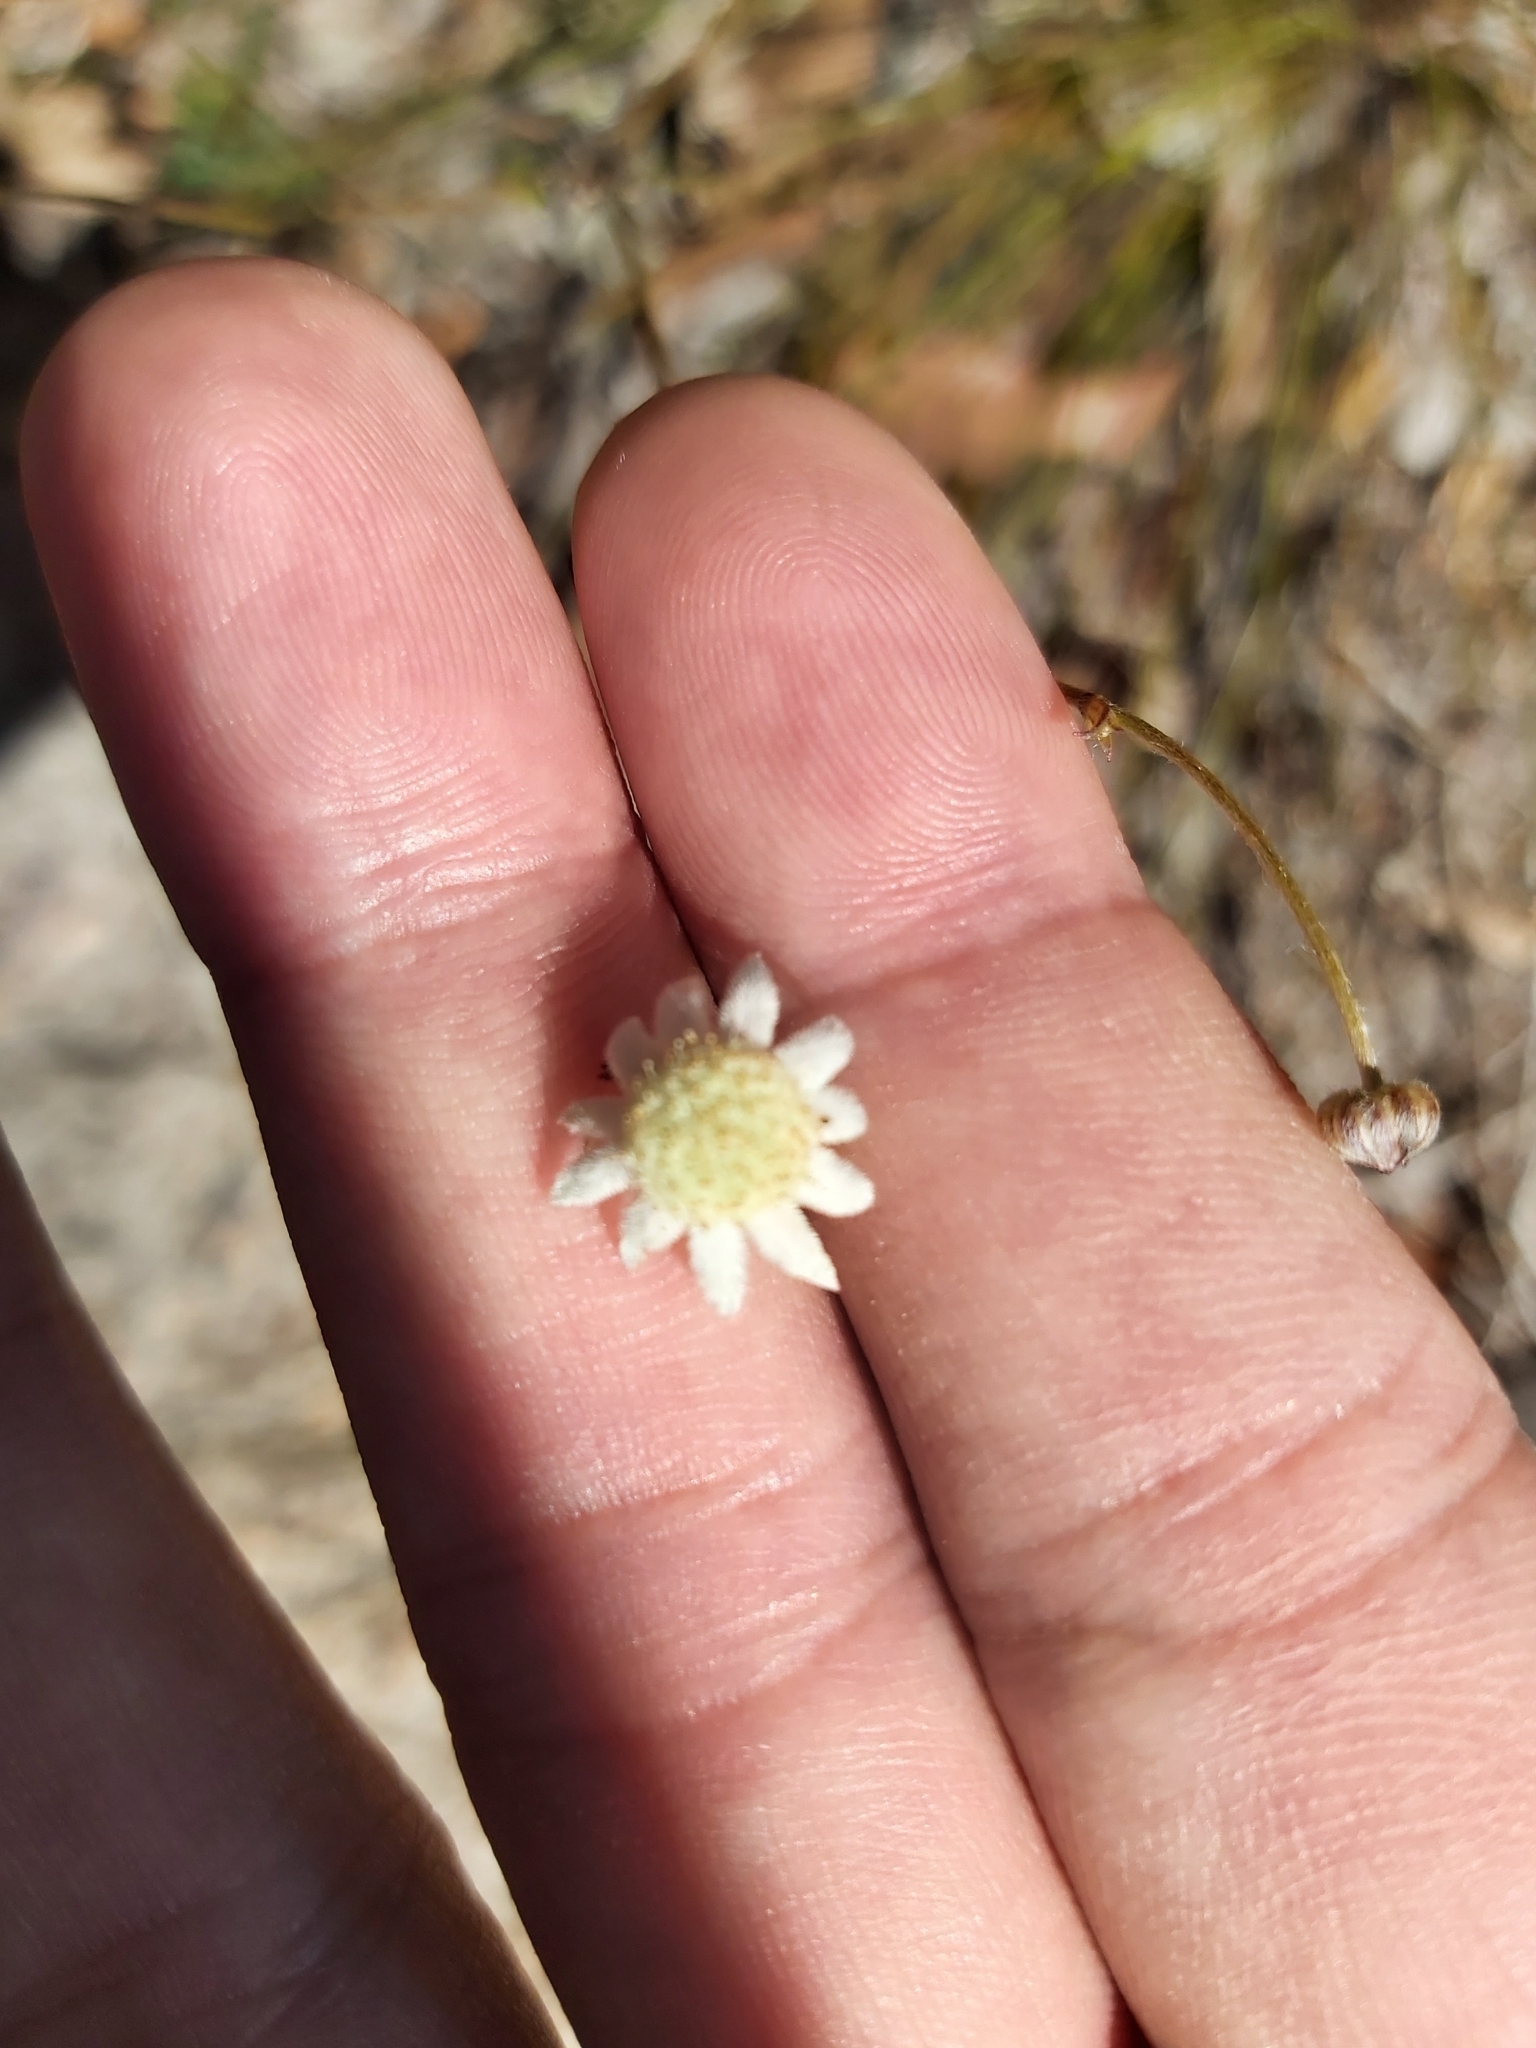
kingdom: Plantae
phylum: Tracheophyta
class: Magnoliopsida
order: Apiales
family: Apiaceae
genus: Actinotus
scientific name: Actinotus minor
